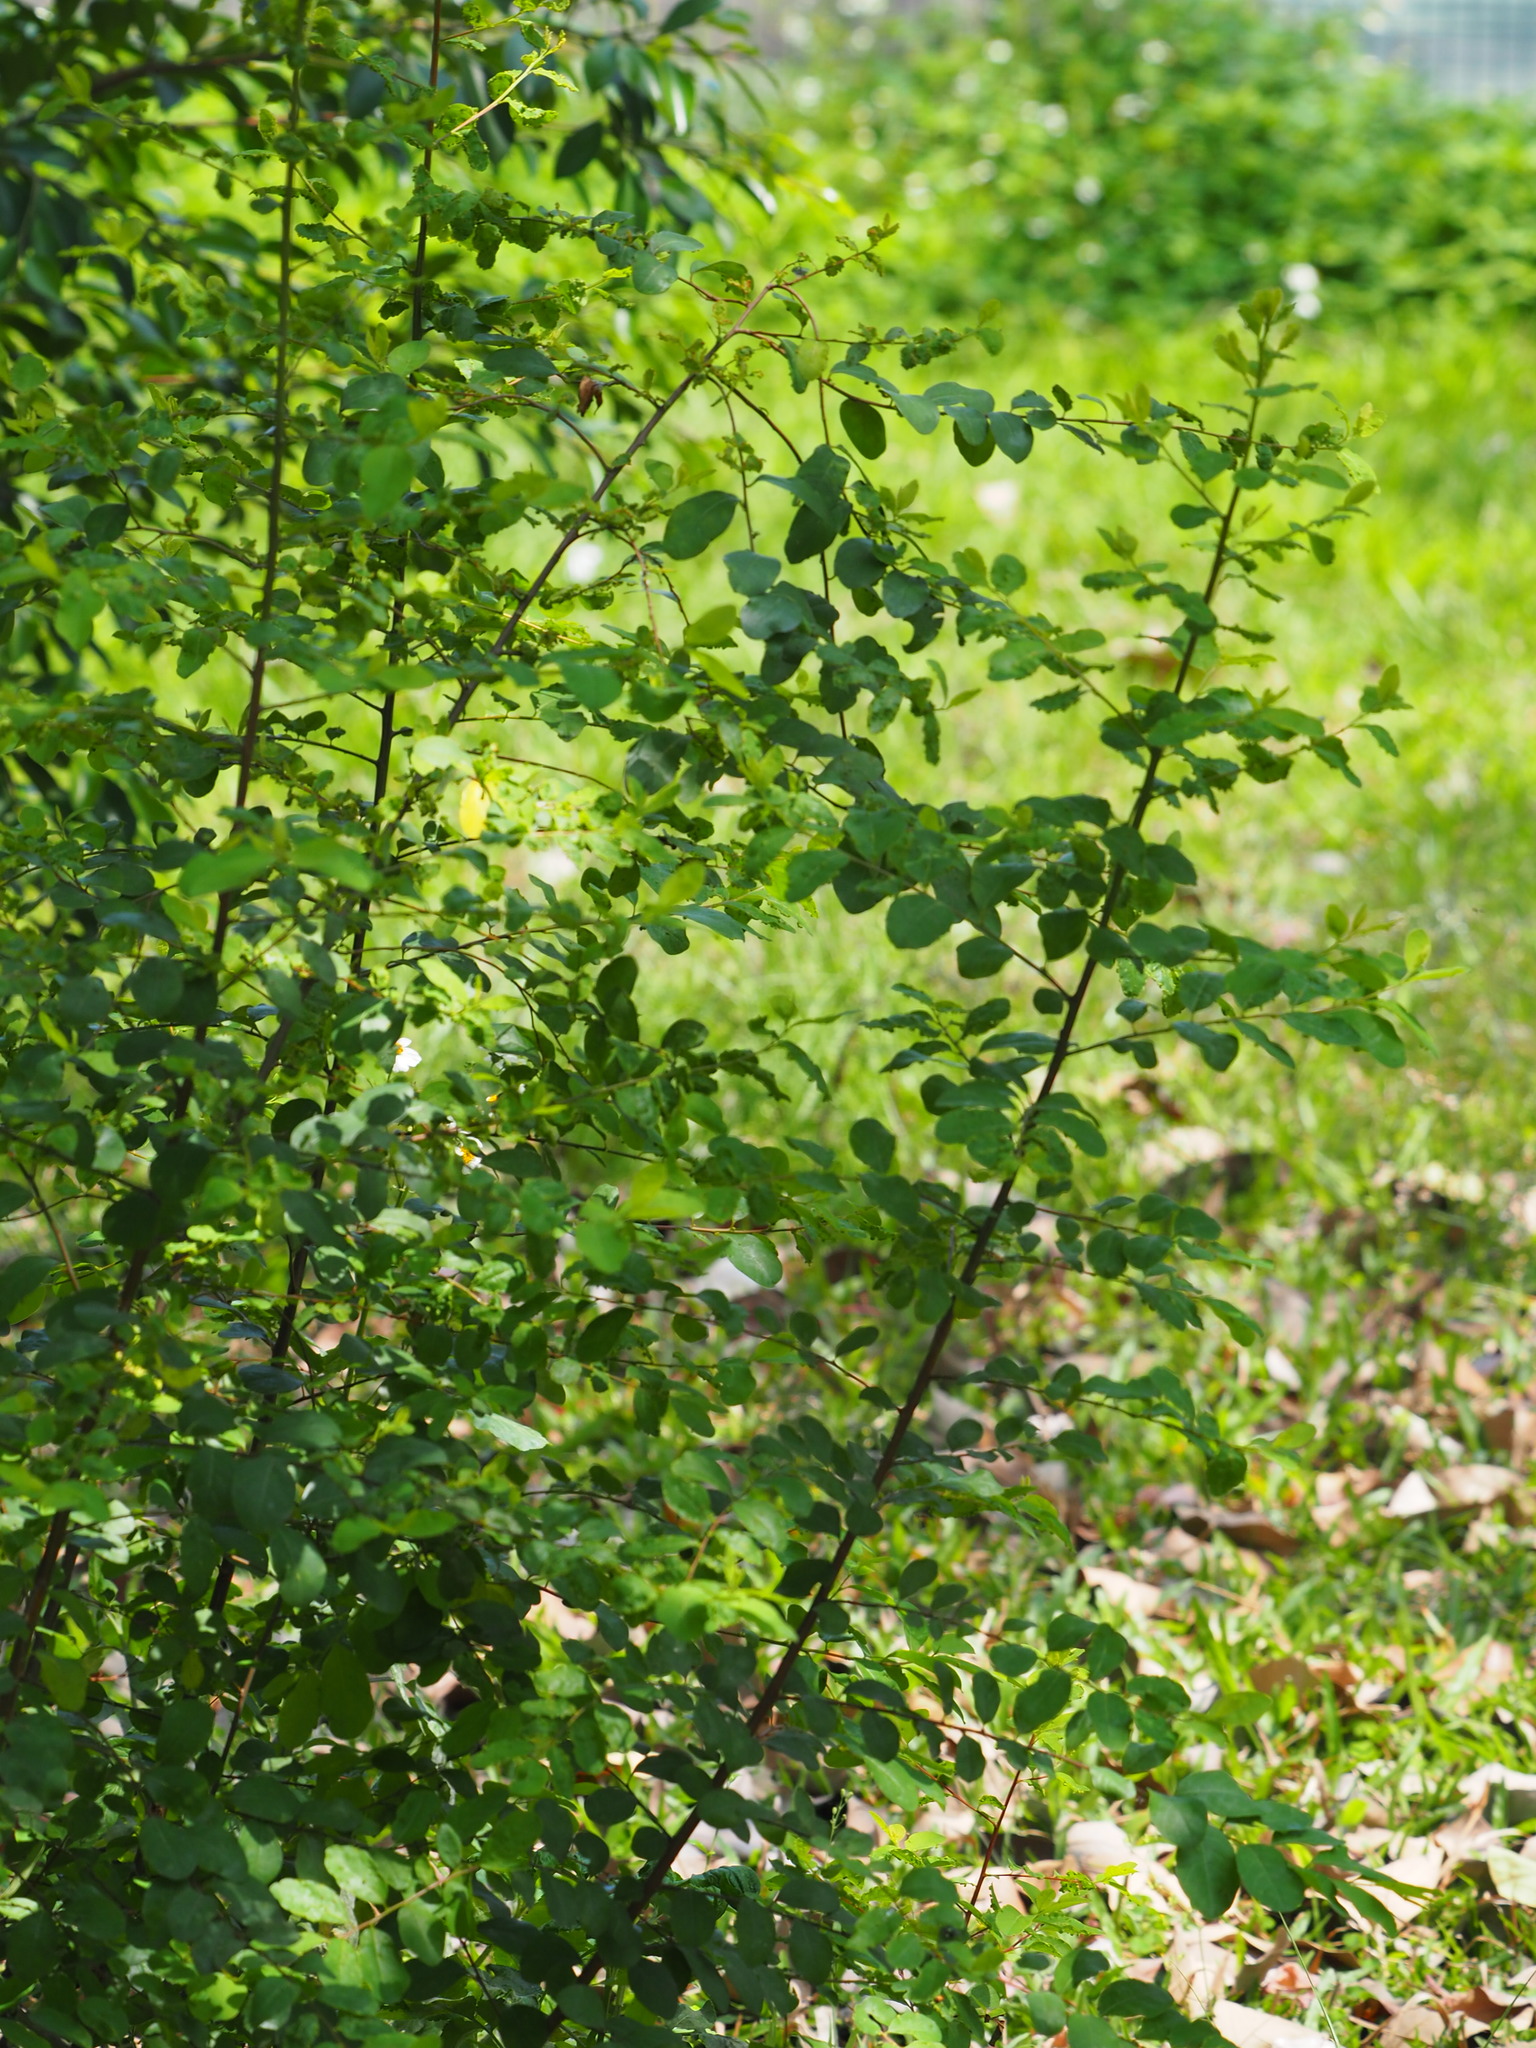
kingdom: Plantae
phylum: Tracheophyta
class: Magnoliopsida
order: Malpighiales
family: Phyllanthaceae
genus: Flueggea
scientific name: Flueggea virosa
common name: Common bushweed
